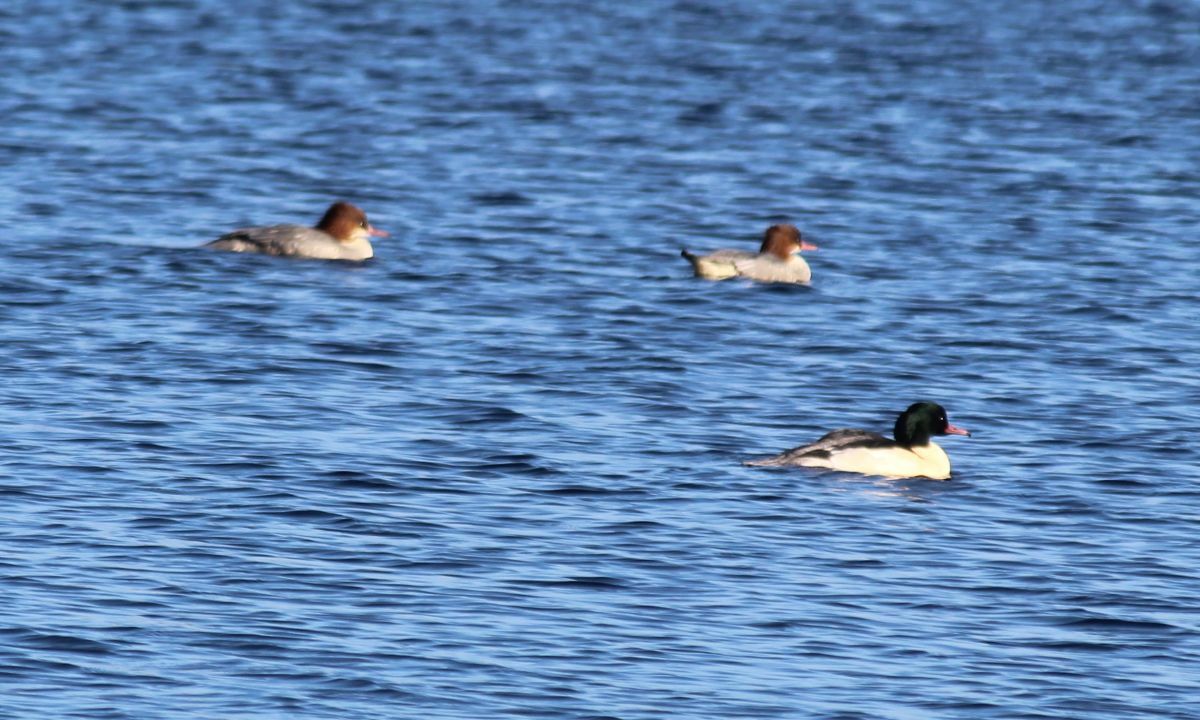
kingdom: Animalia
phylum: Chordata
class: Aves
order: Anseriformes
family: Anatidae
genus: Mergus
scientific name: Mergus merganser
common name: Common merganser
